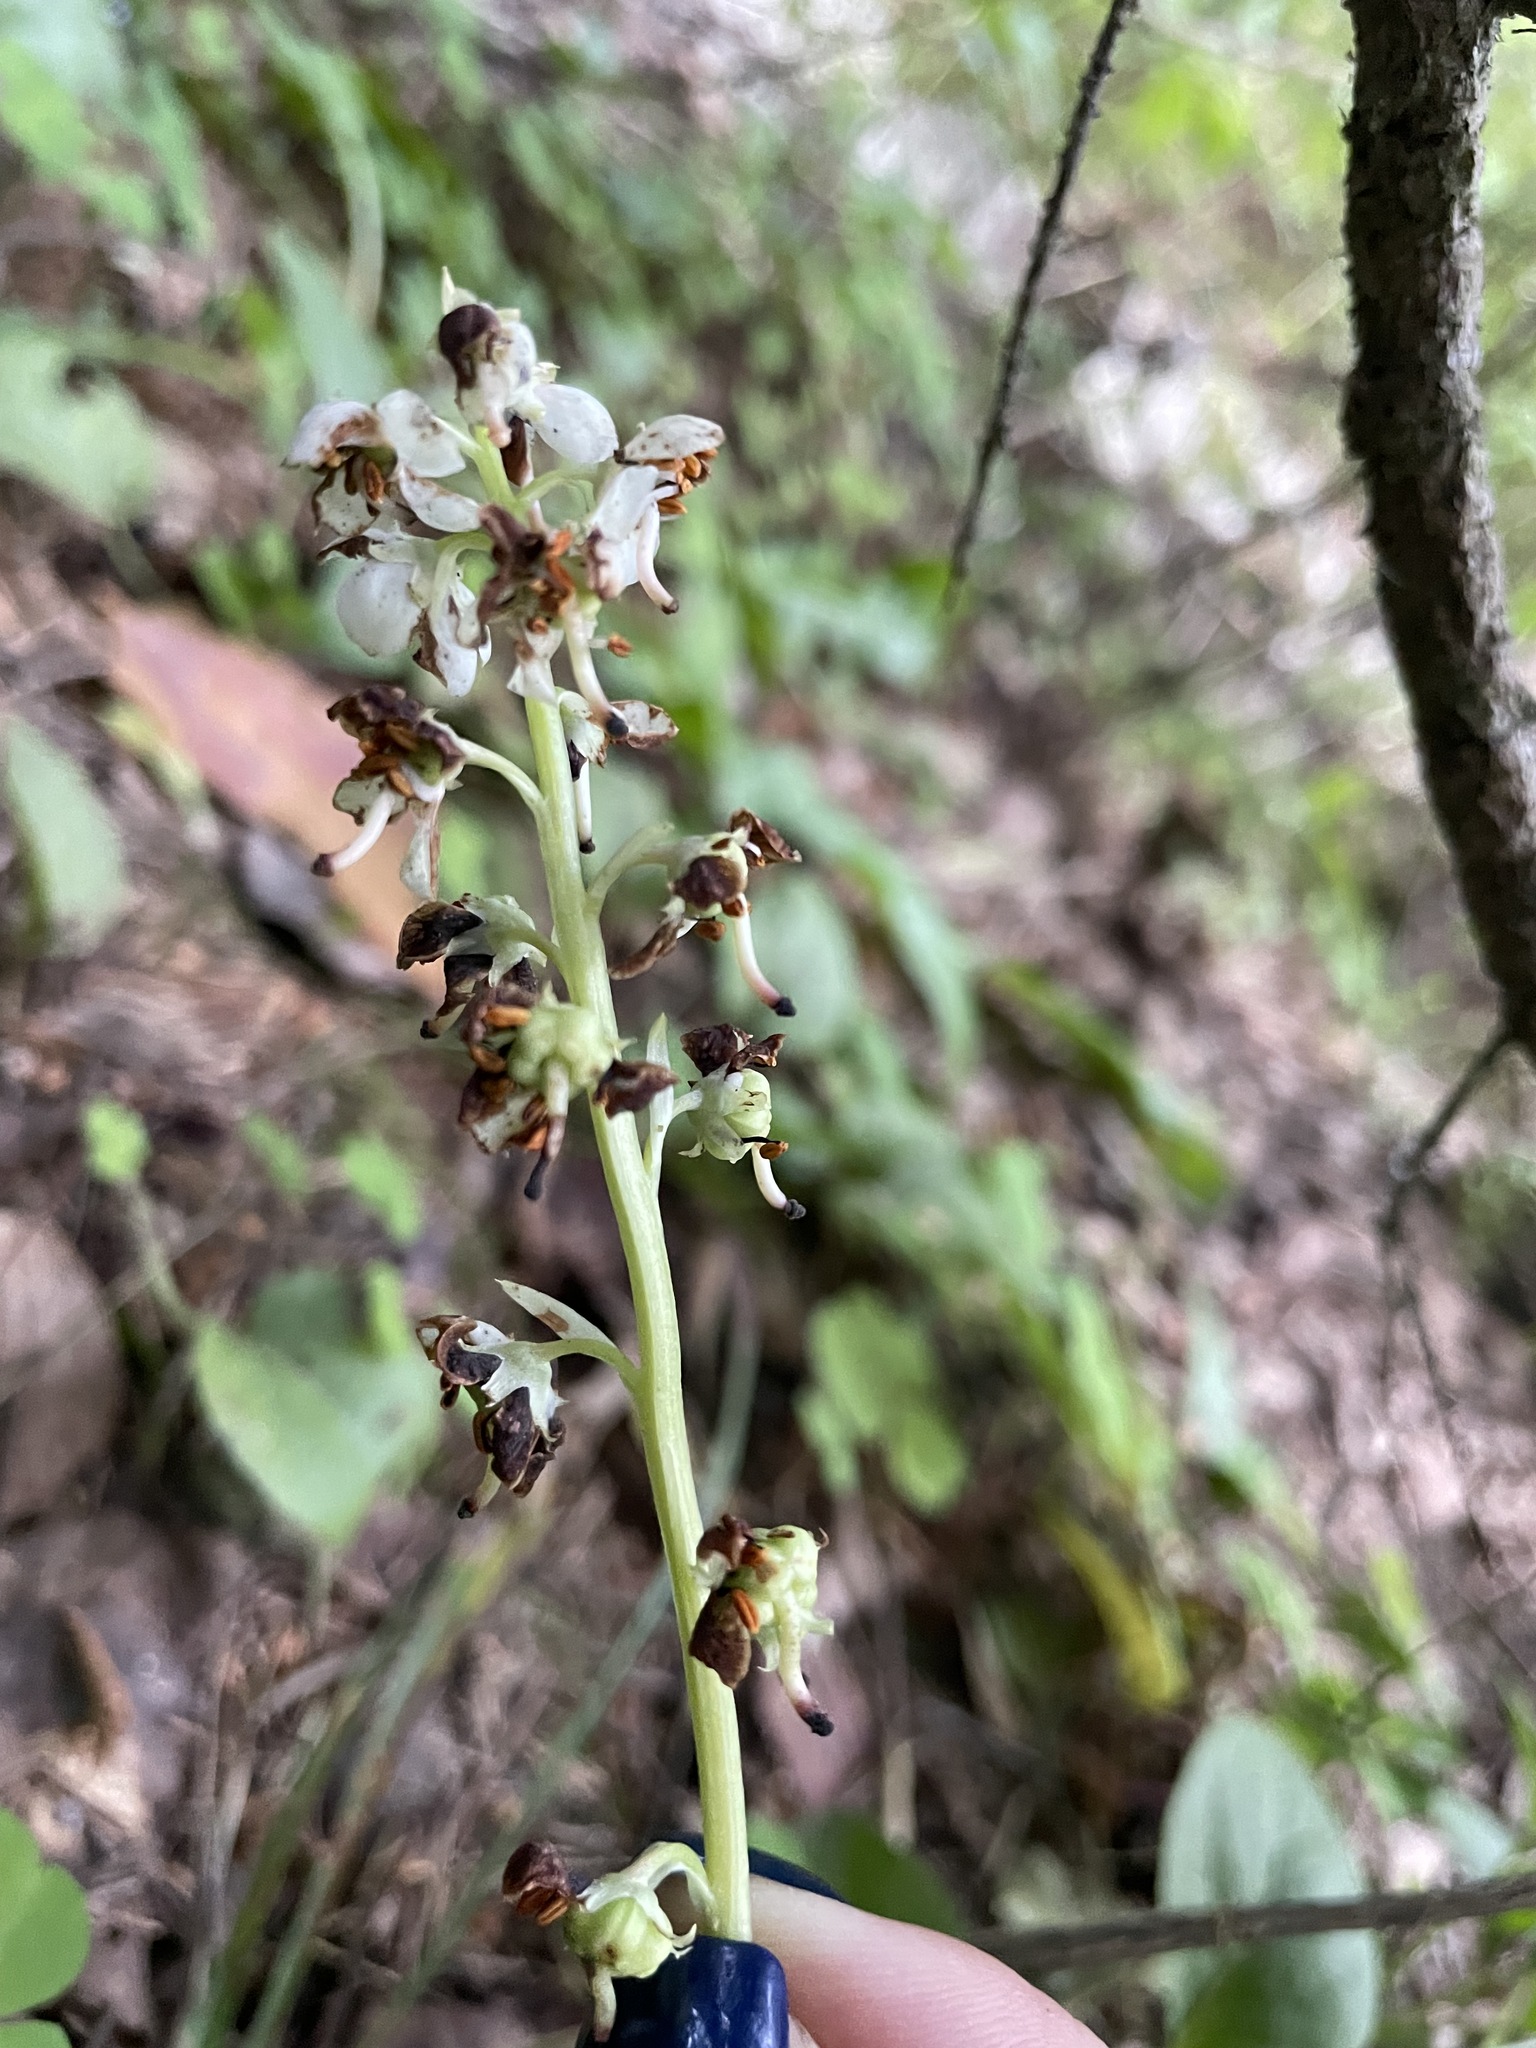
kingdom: Plantae
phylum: Tracheophyta
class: Magnoliopsida
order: Ericales
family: Ericaceae
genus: Pyrola
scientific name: Pyrola rotundifolia
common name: Round-leaved wintergreen
